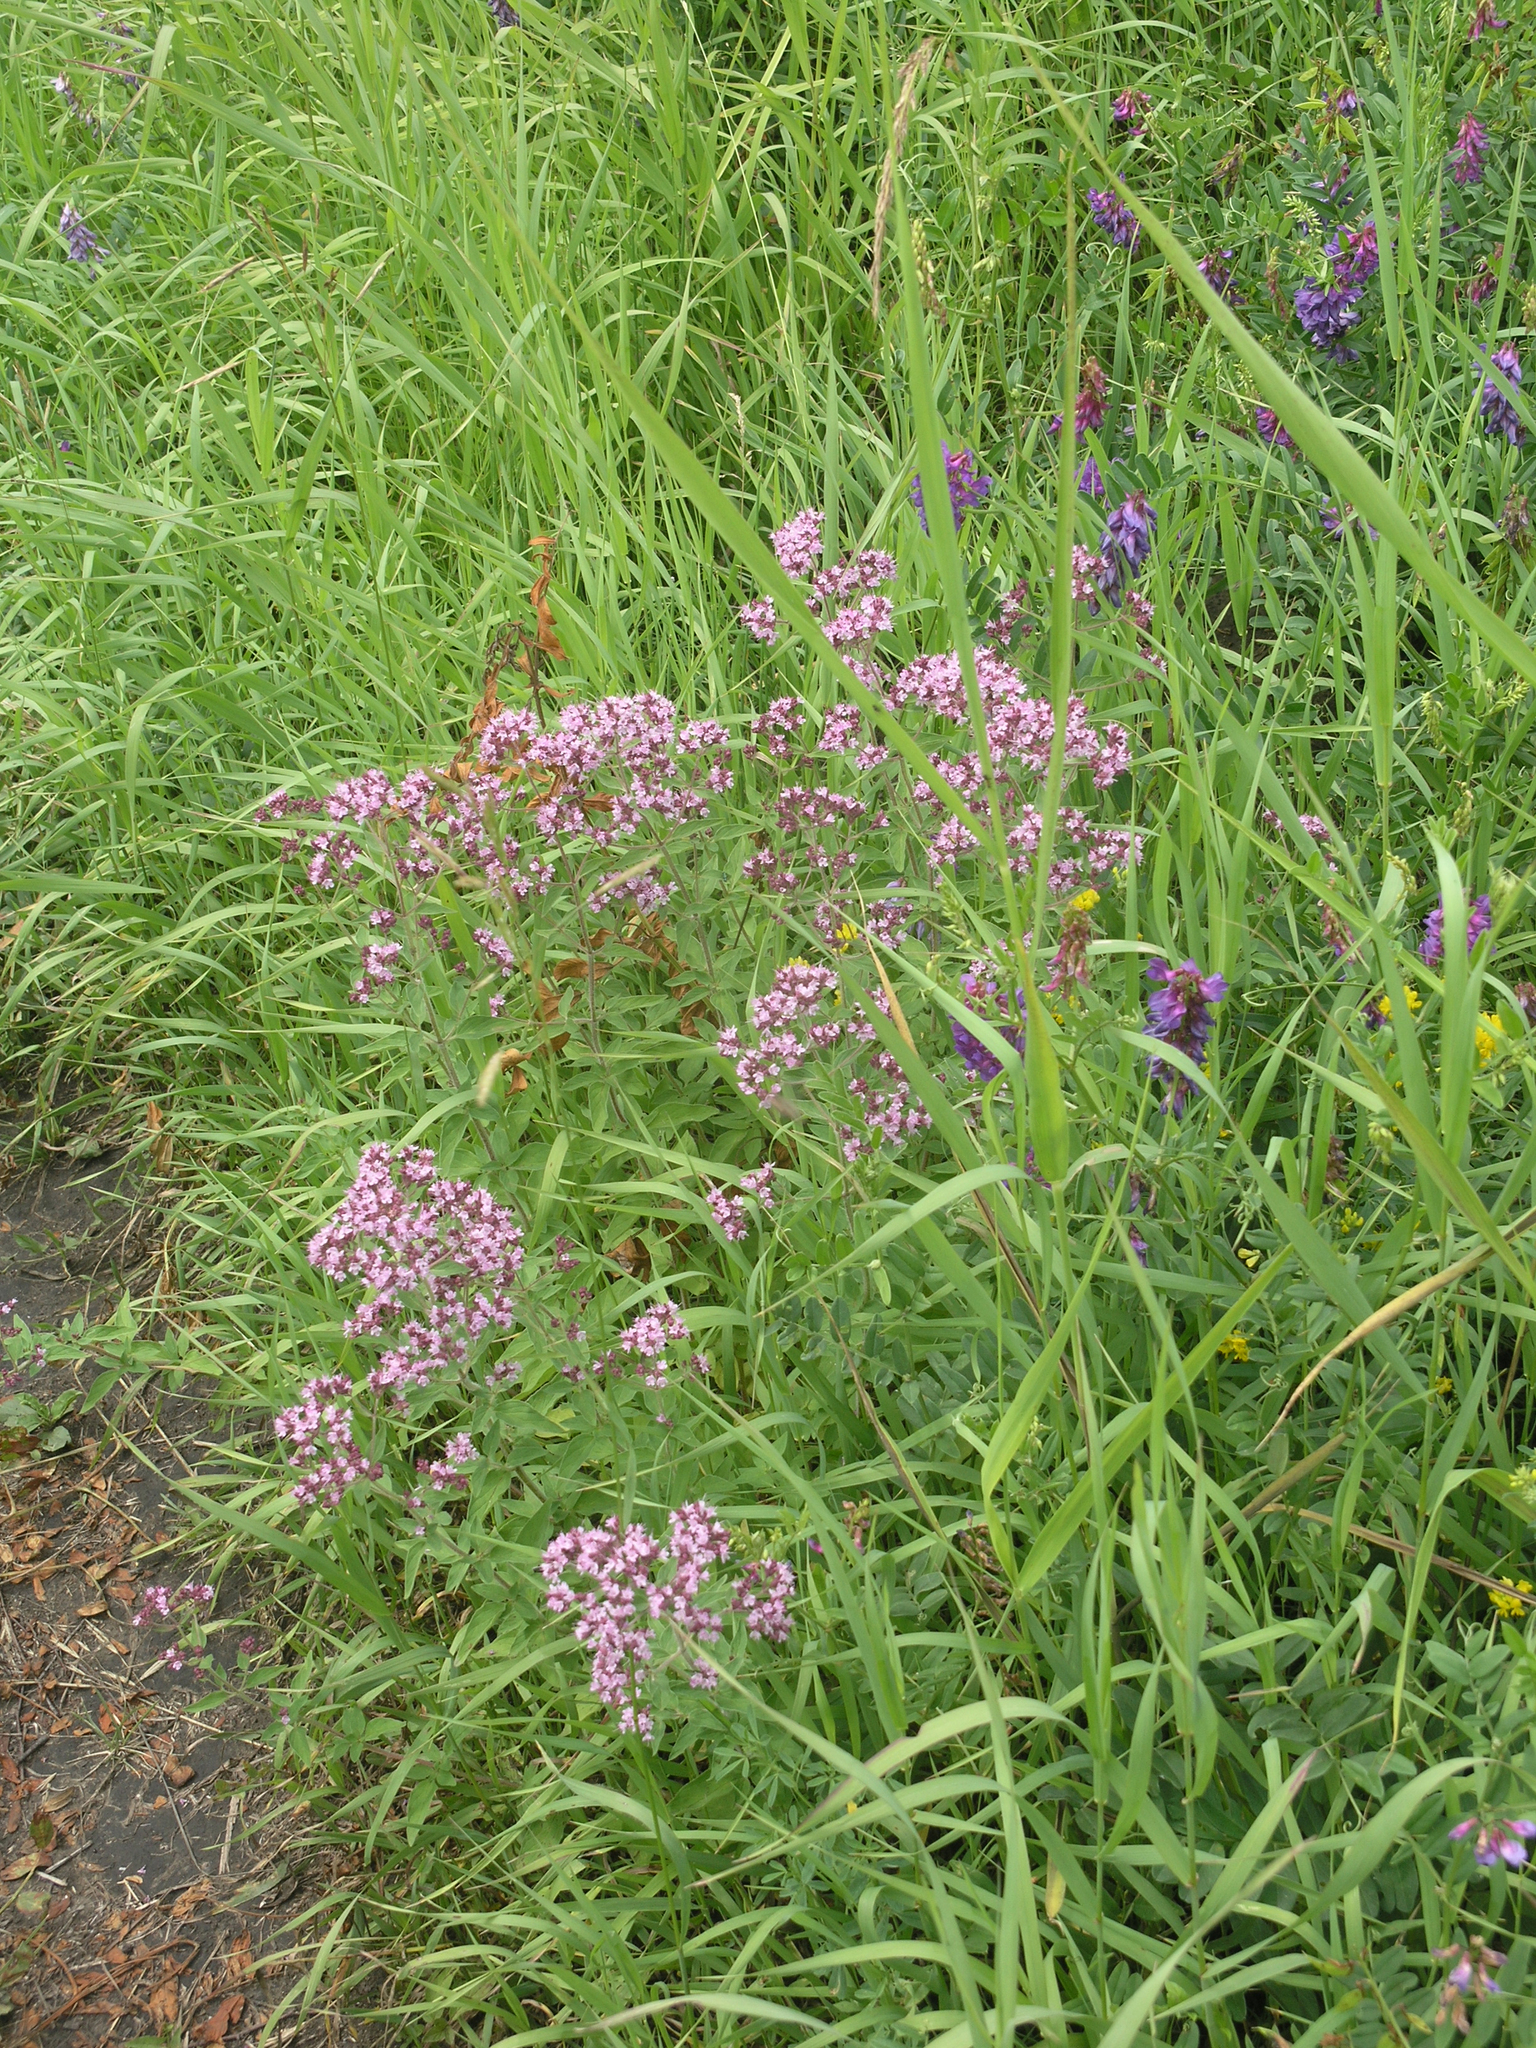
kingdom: Plantae
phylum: Tracheophyta
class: Magnoliopsida
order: Lamiales
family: Lamiaceae
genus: Origanum
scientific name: Origanum vulgare
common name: Wild marjoram
